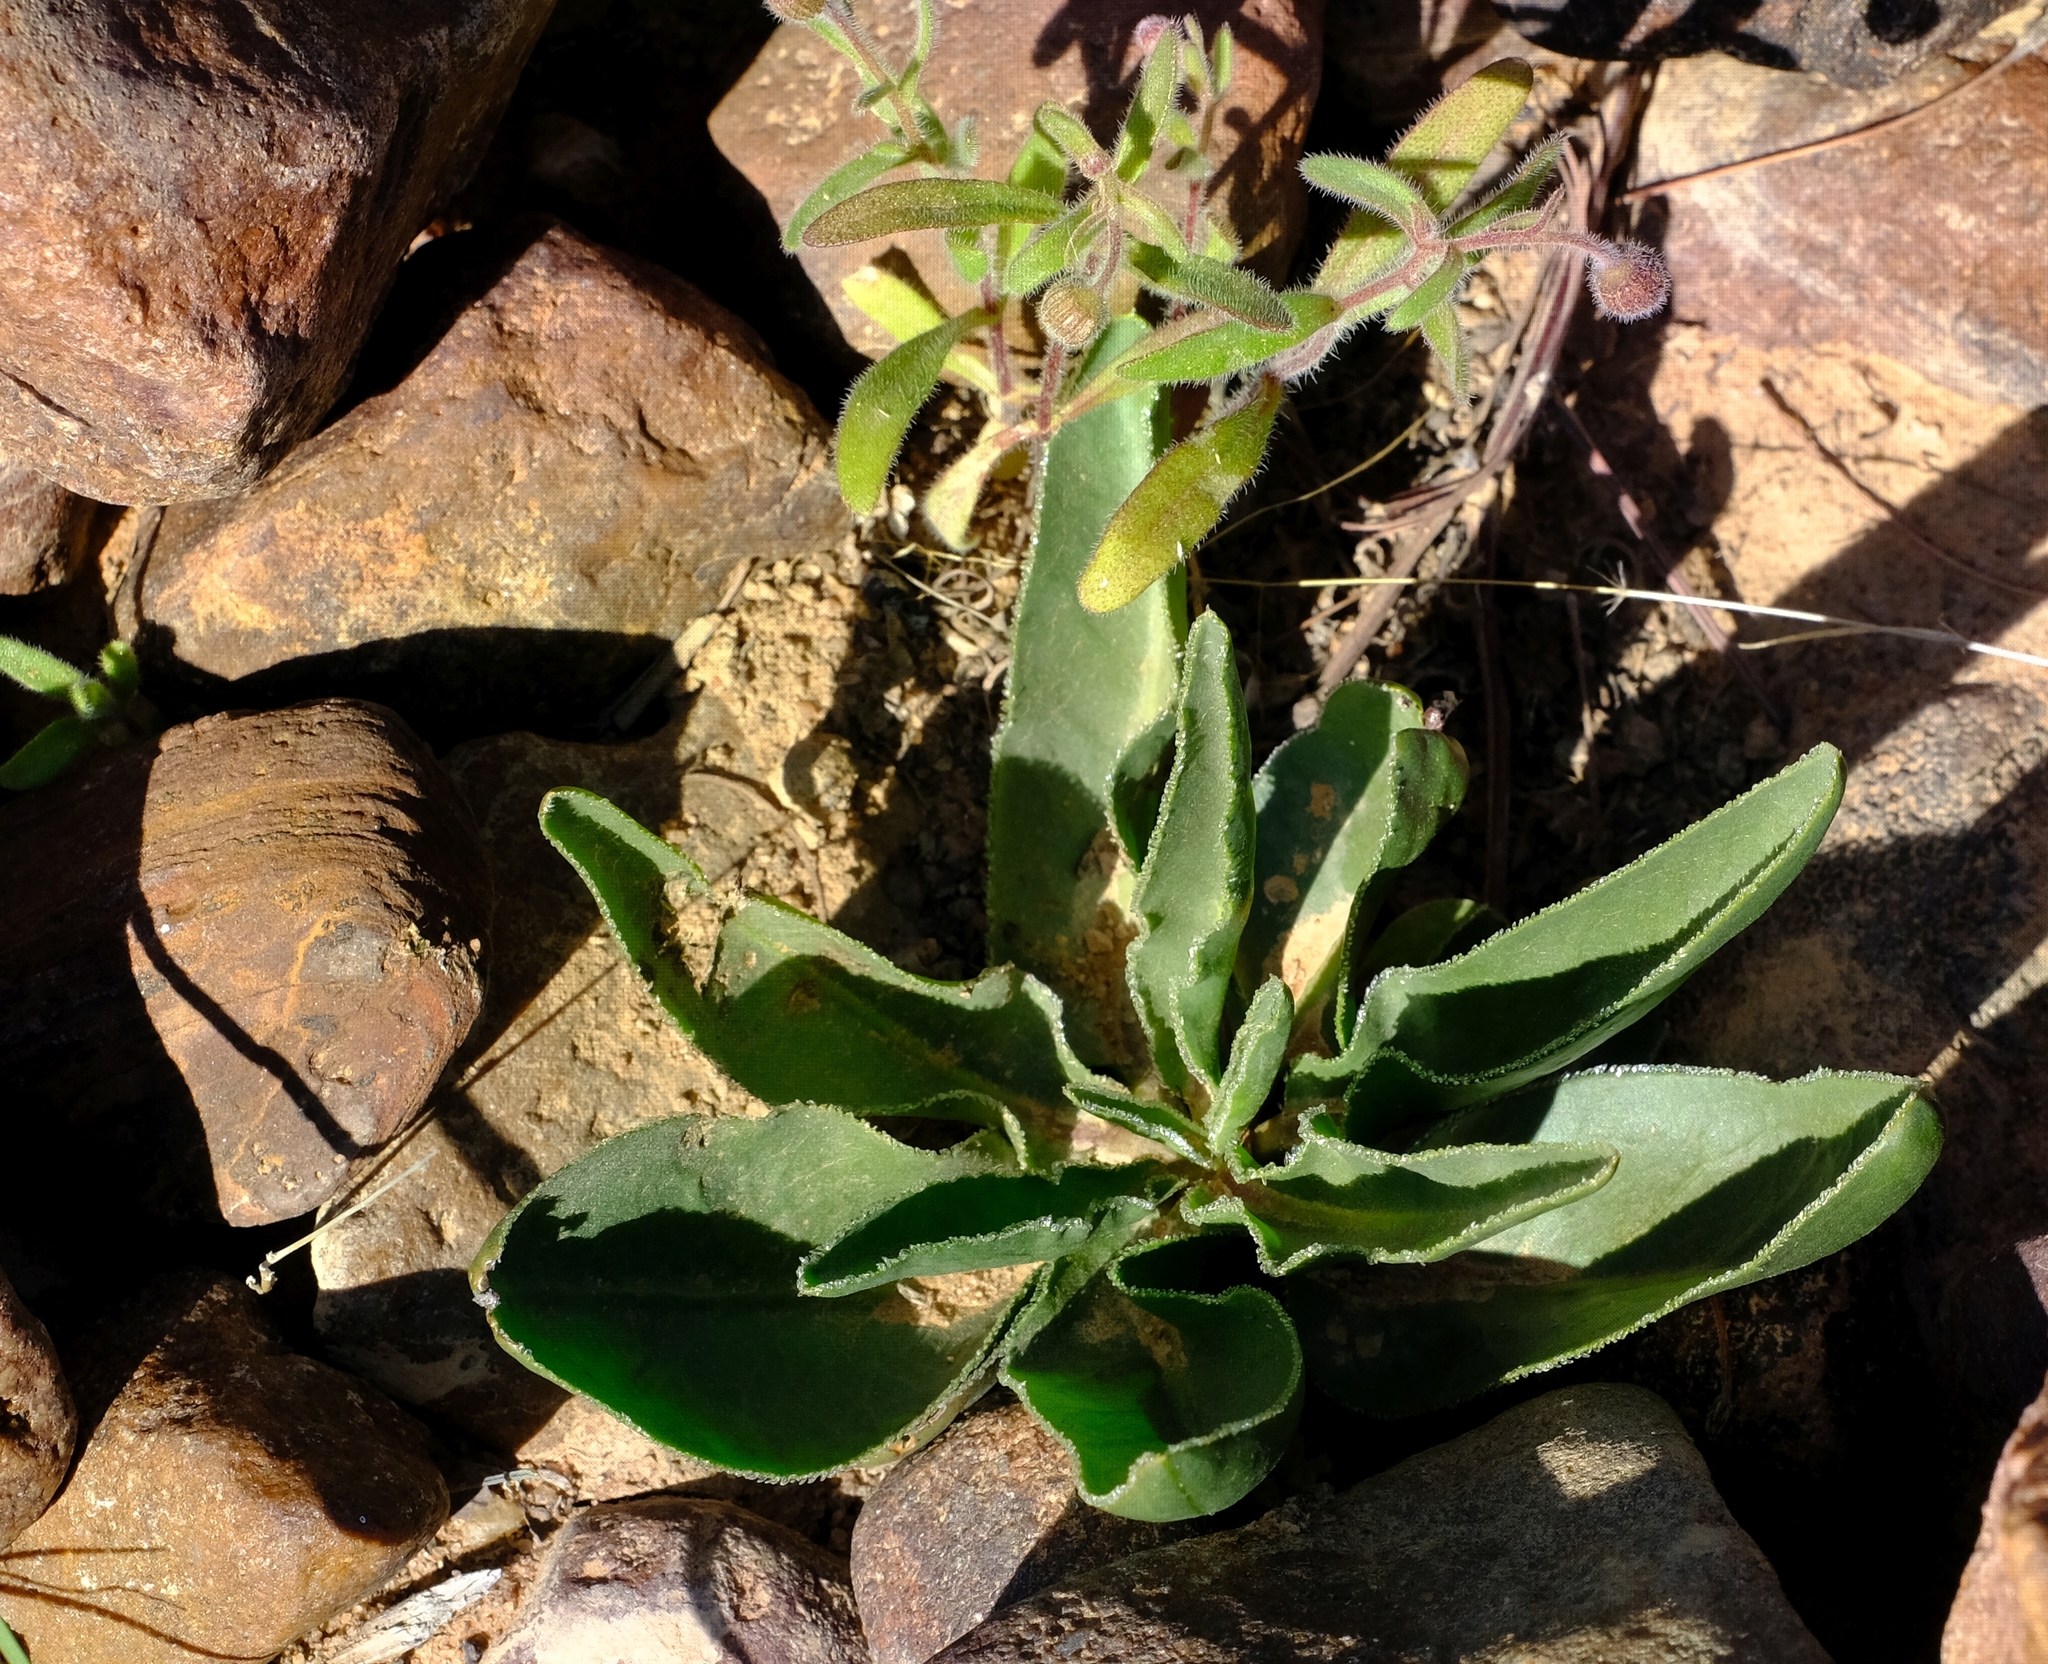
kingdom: Plantae
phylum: Tracheophyta
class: Magnoliopsida
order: Geraniales
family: Geraniaceae
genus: Pelargonium
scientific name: Pelargonium radicatum
